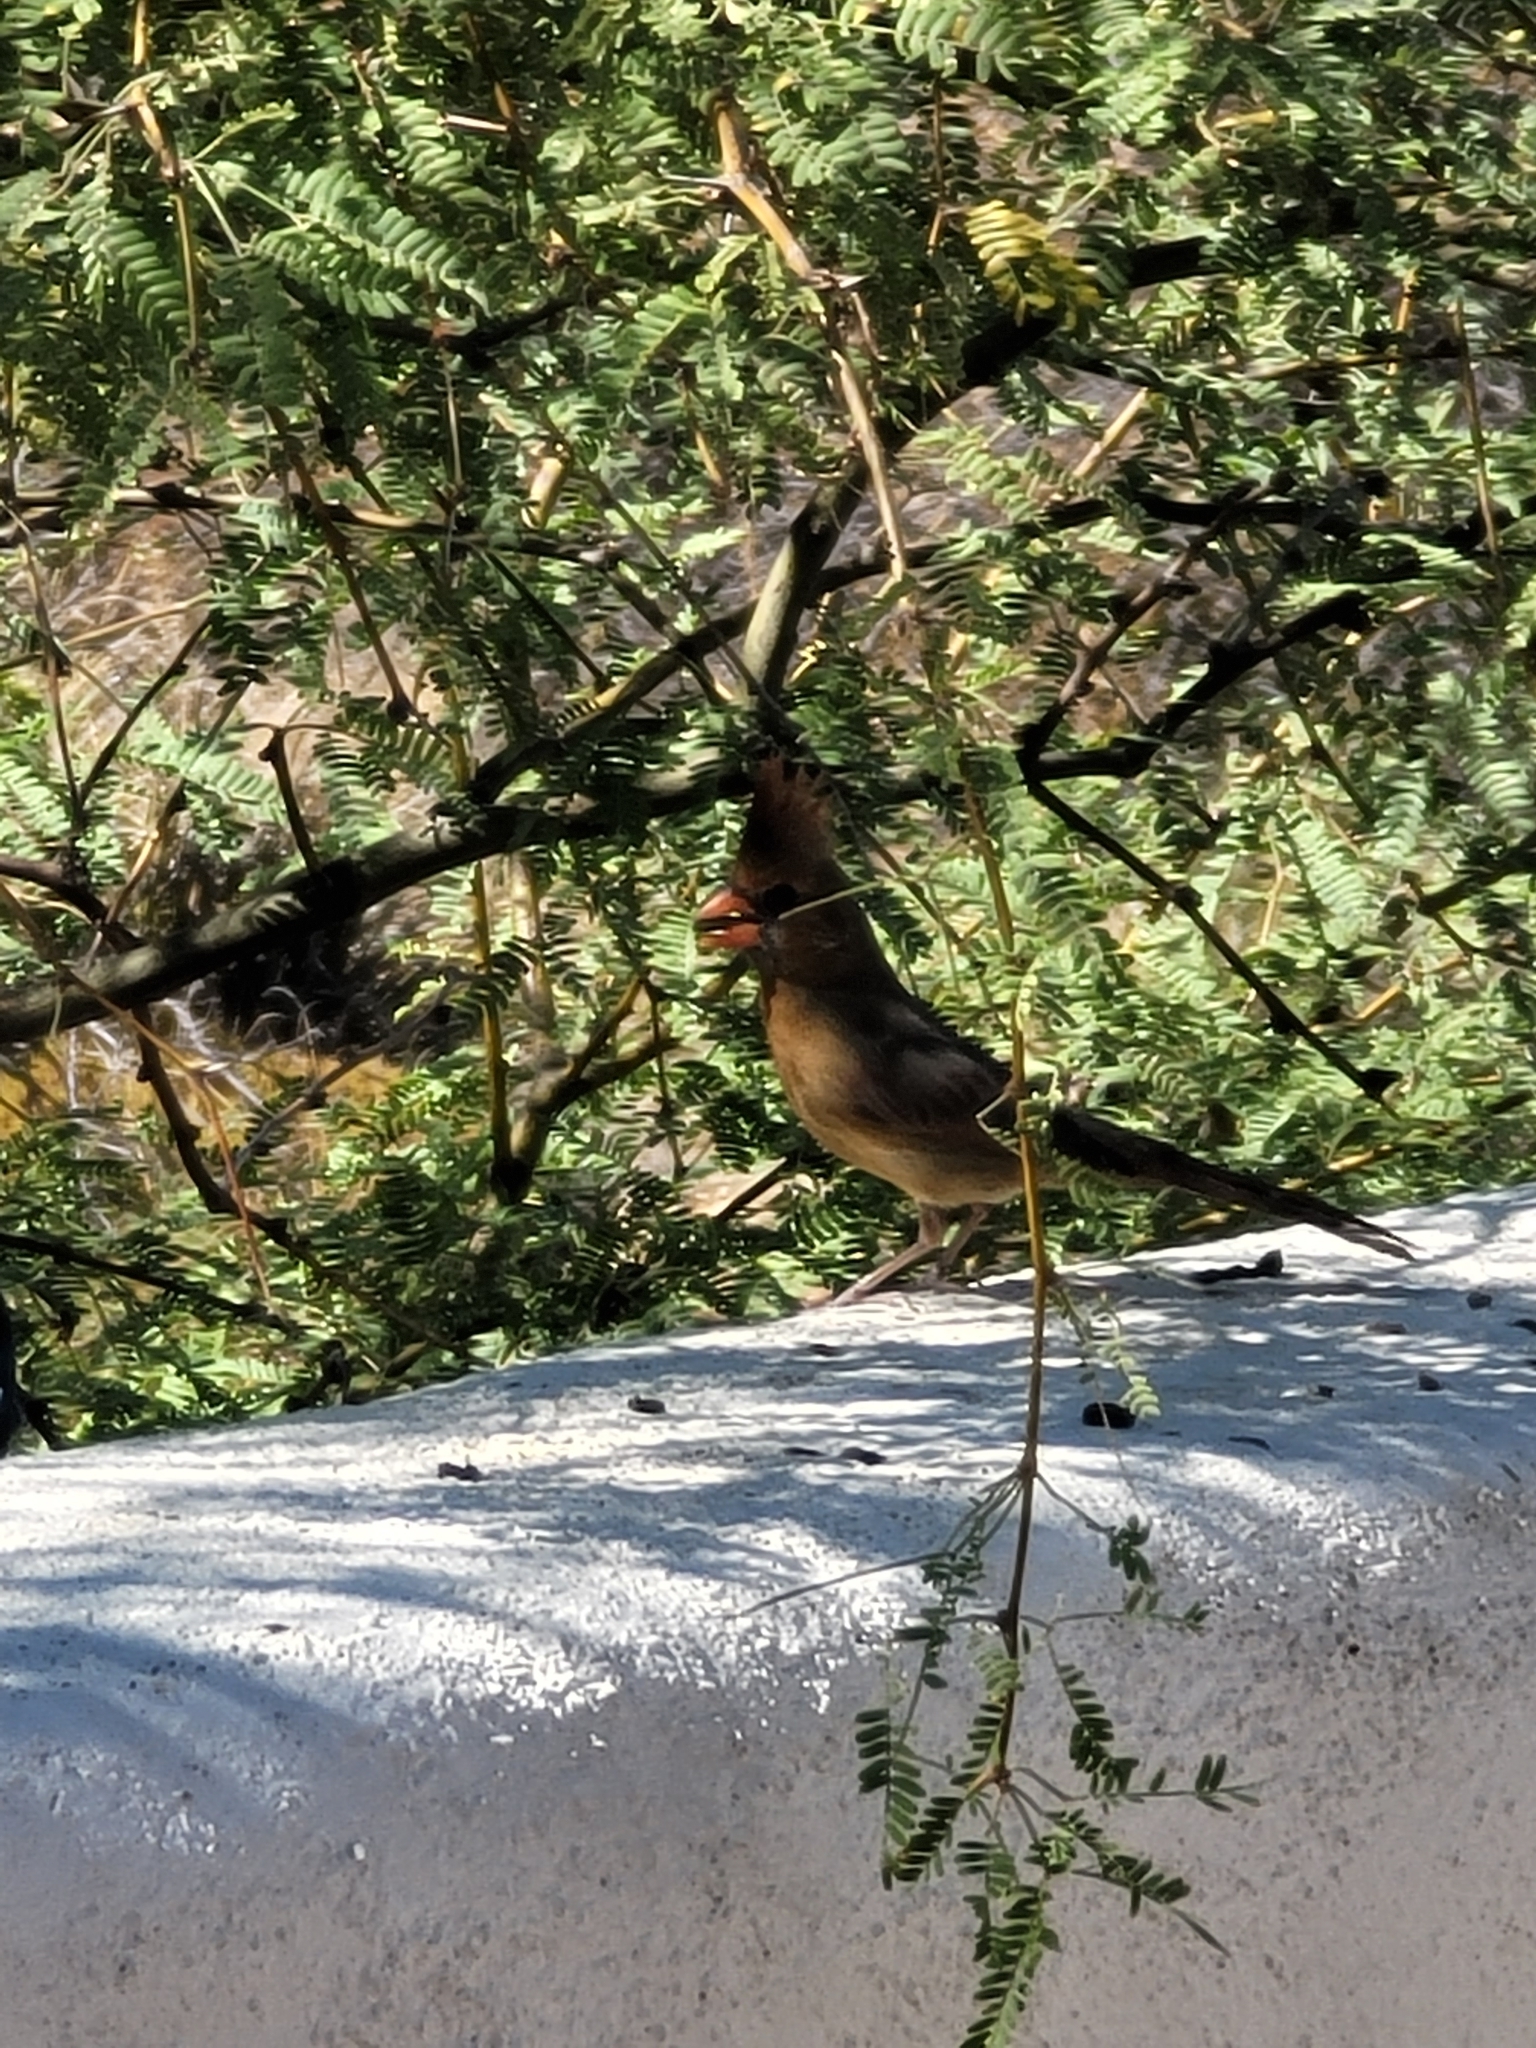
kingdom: Animalia
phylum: Chordata
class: Aves
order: Passeriformes
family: Cardinalidae
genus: Cardinalis
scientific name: Cardinalis sinuatus
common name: Pyrrhuloxia
